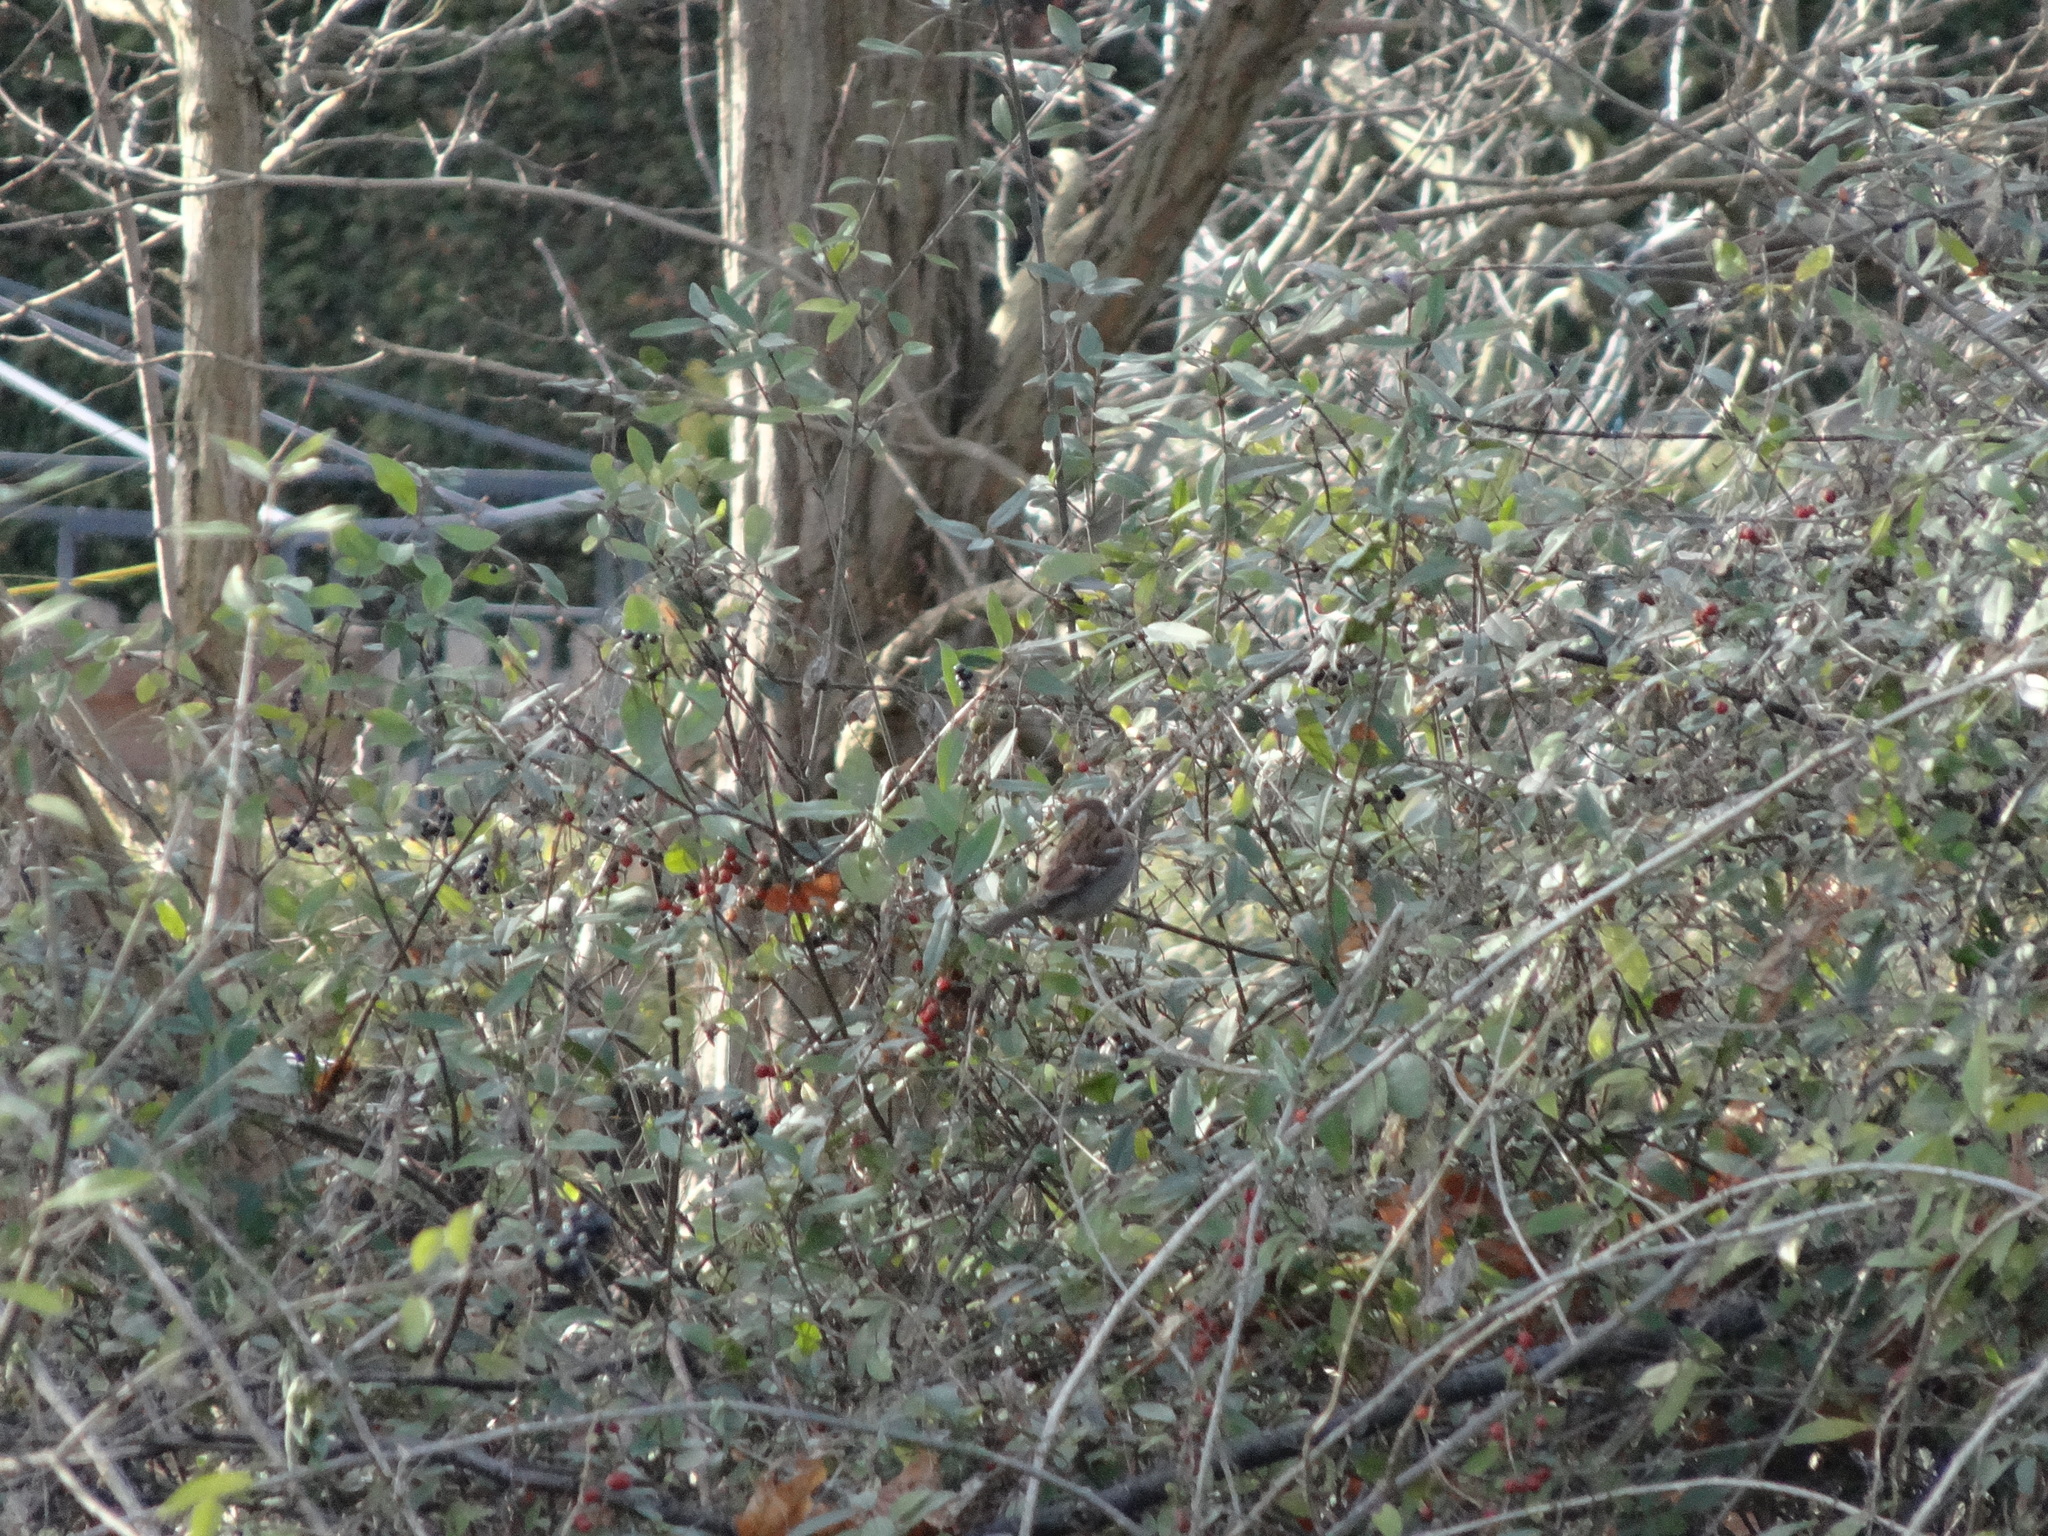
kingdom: Animalia
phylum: Chordata
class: Aves
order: Passeriformes
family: Passeridae
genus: Passer
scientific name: Passer domesticus
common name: House sparrow
